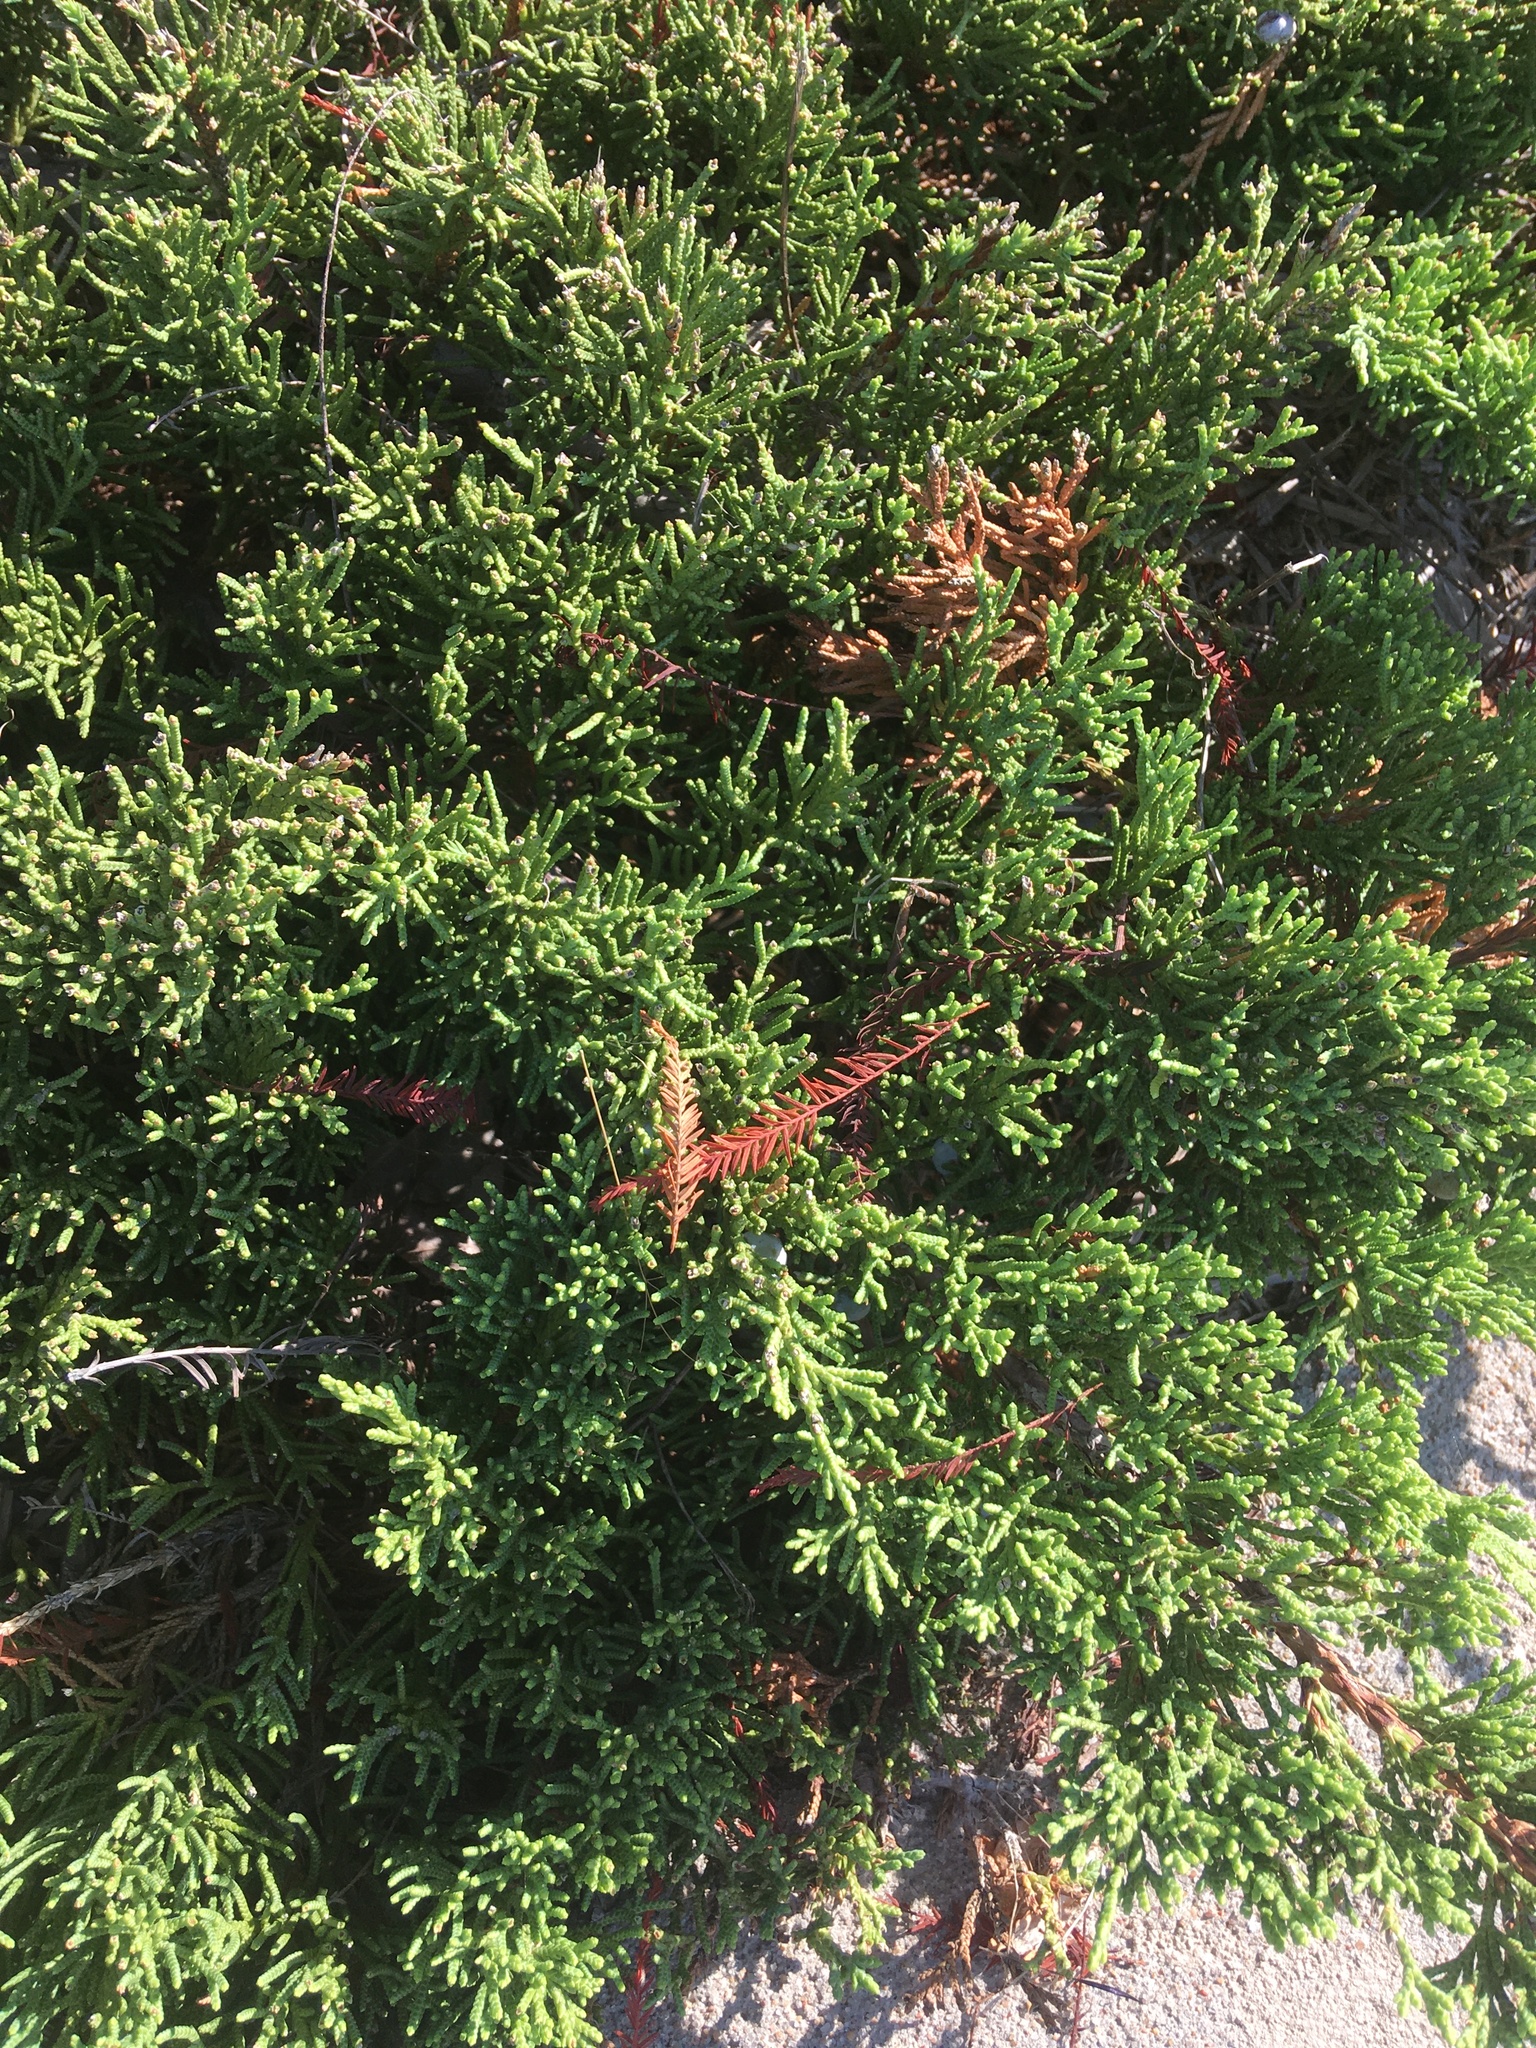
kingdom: Plantae
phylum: Tracheophyta
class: Pinopsida
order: Pinales
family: Cupressaceae
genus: Juniperus
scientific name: Juniperus virginiana
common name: Red juniper
